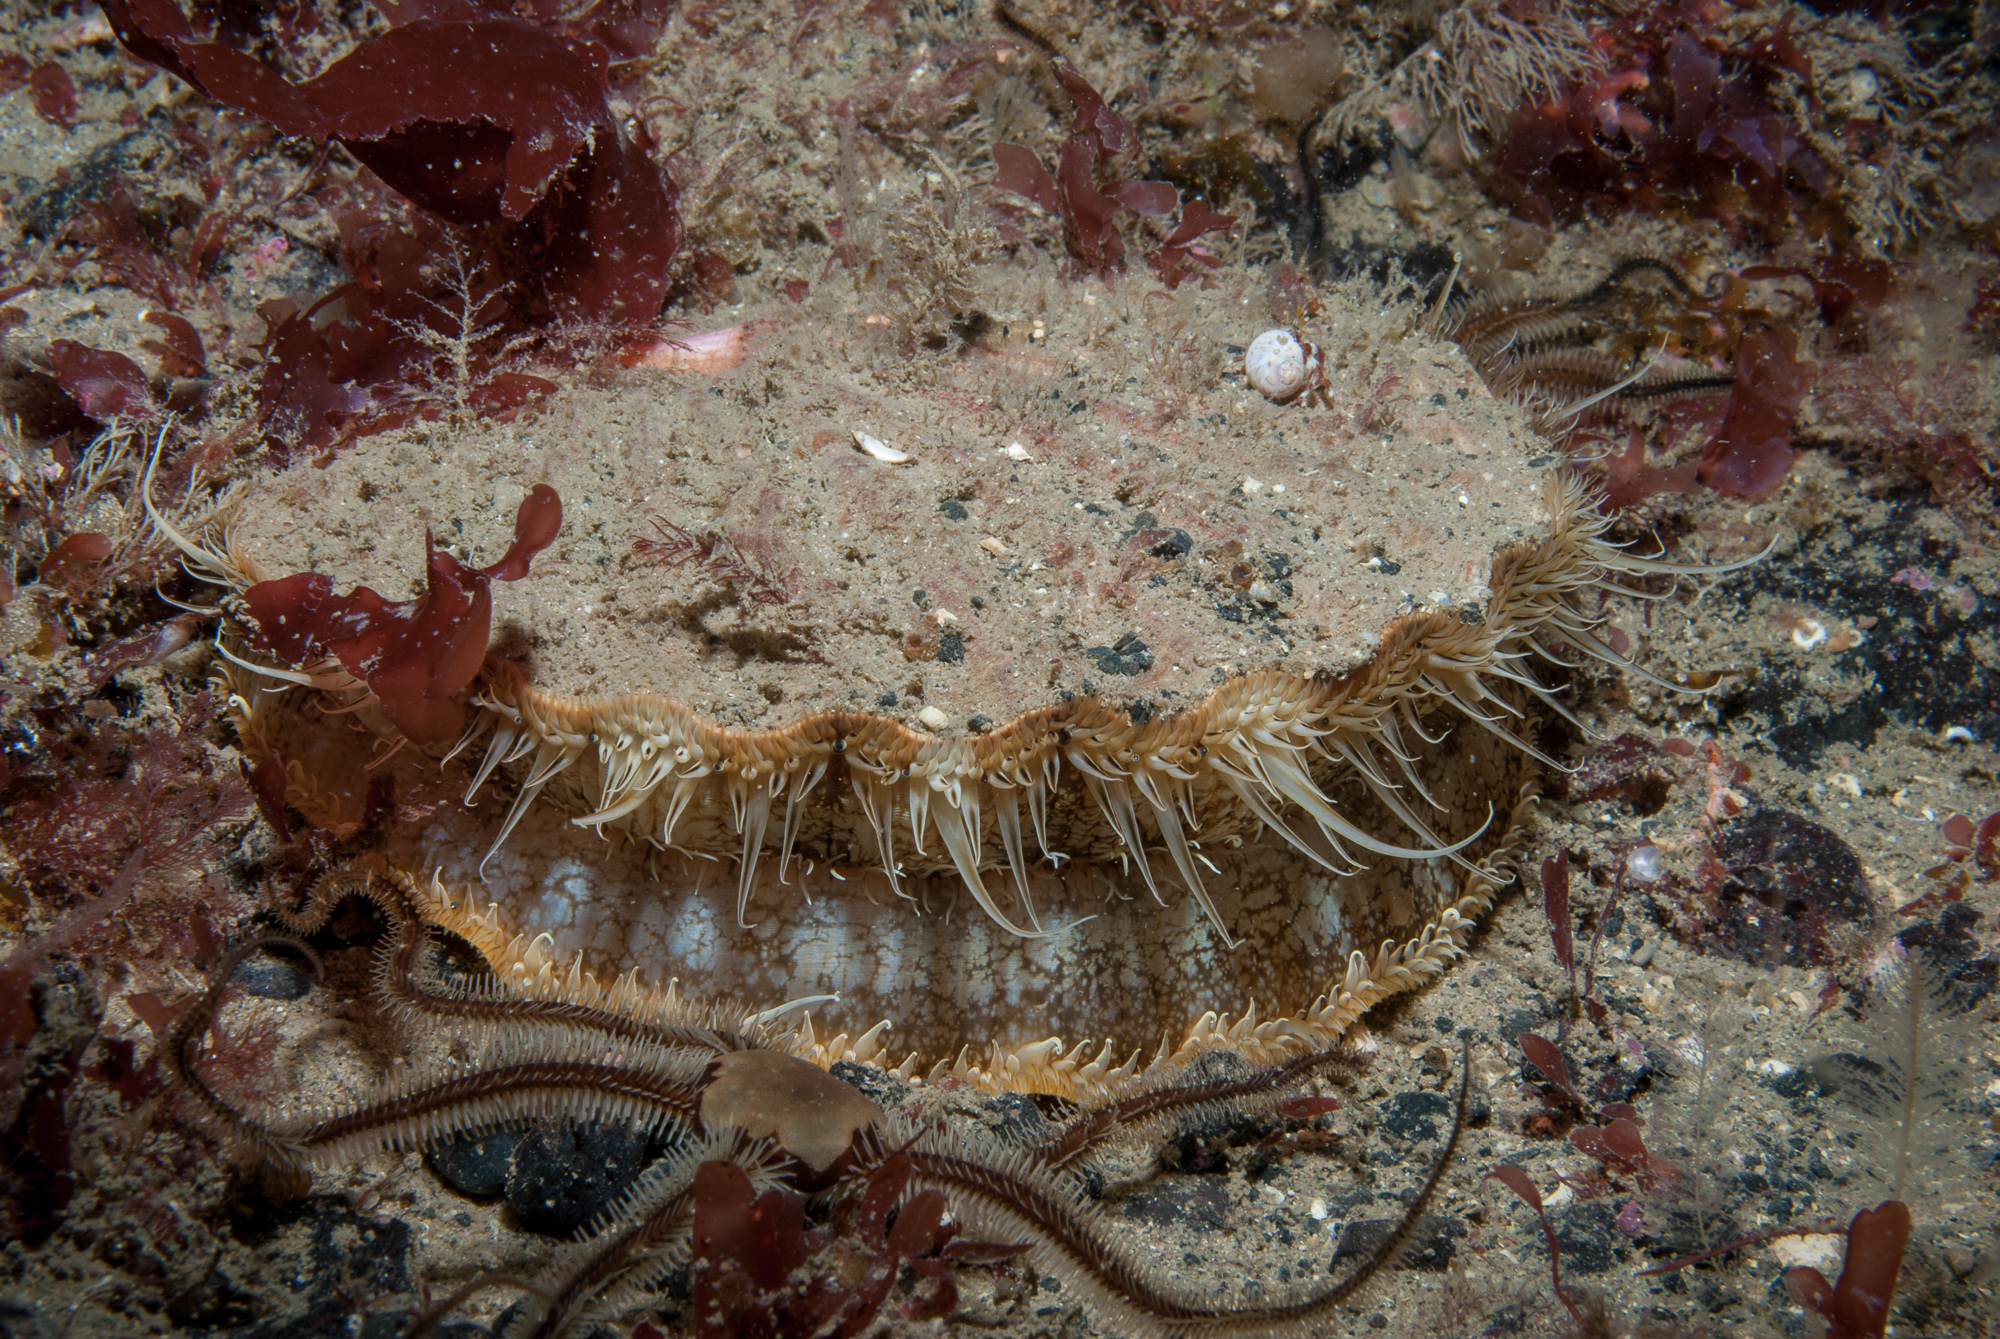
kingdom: Animalia
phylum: Mollusca
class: Bivalvia
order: Pectinida
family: Pectinidae
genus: Pecten
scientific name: Pecten maximus
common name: Great scallop
